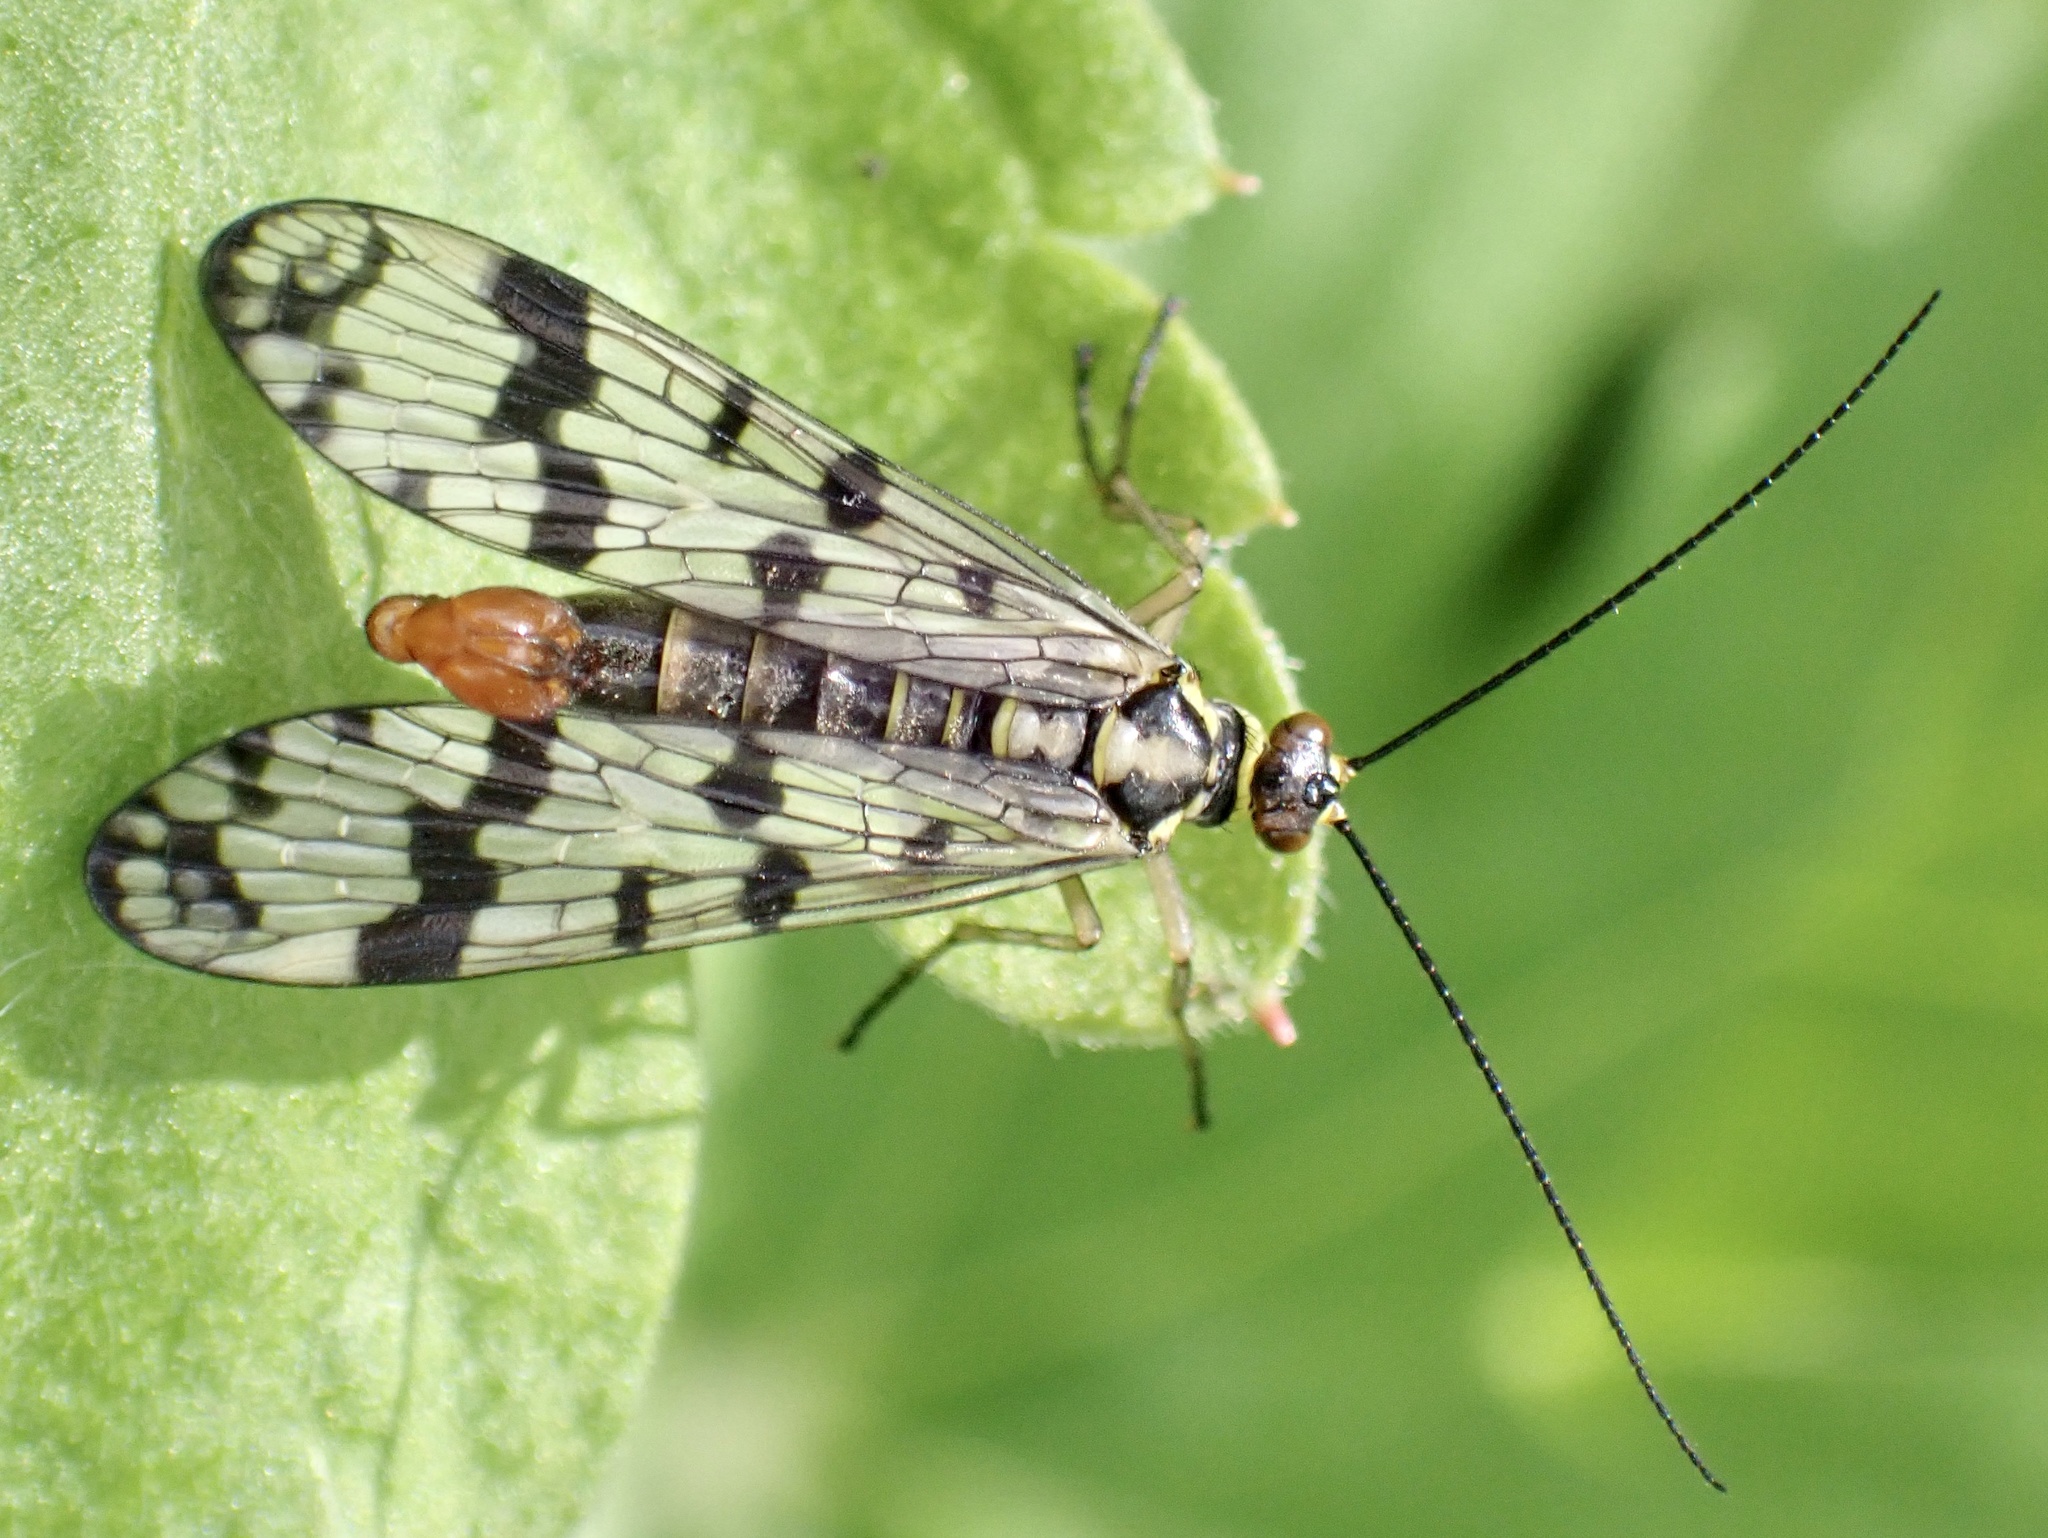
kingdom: Animalia
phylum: Arthropoda
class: Insecta
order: Mecoptera
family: Panorpidae
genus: Panorpa
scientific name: Panorpa communis
